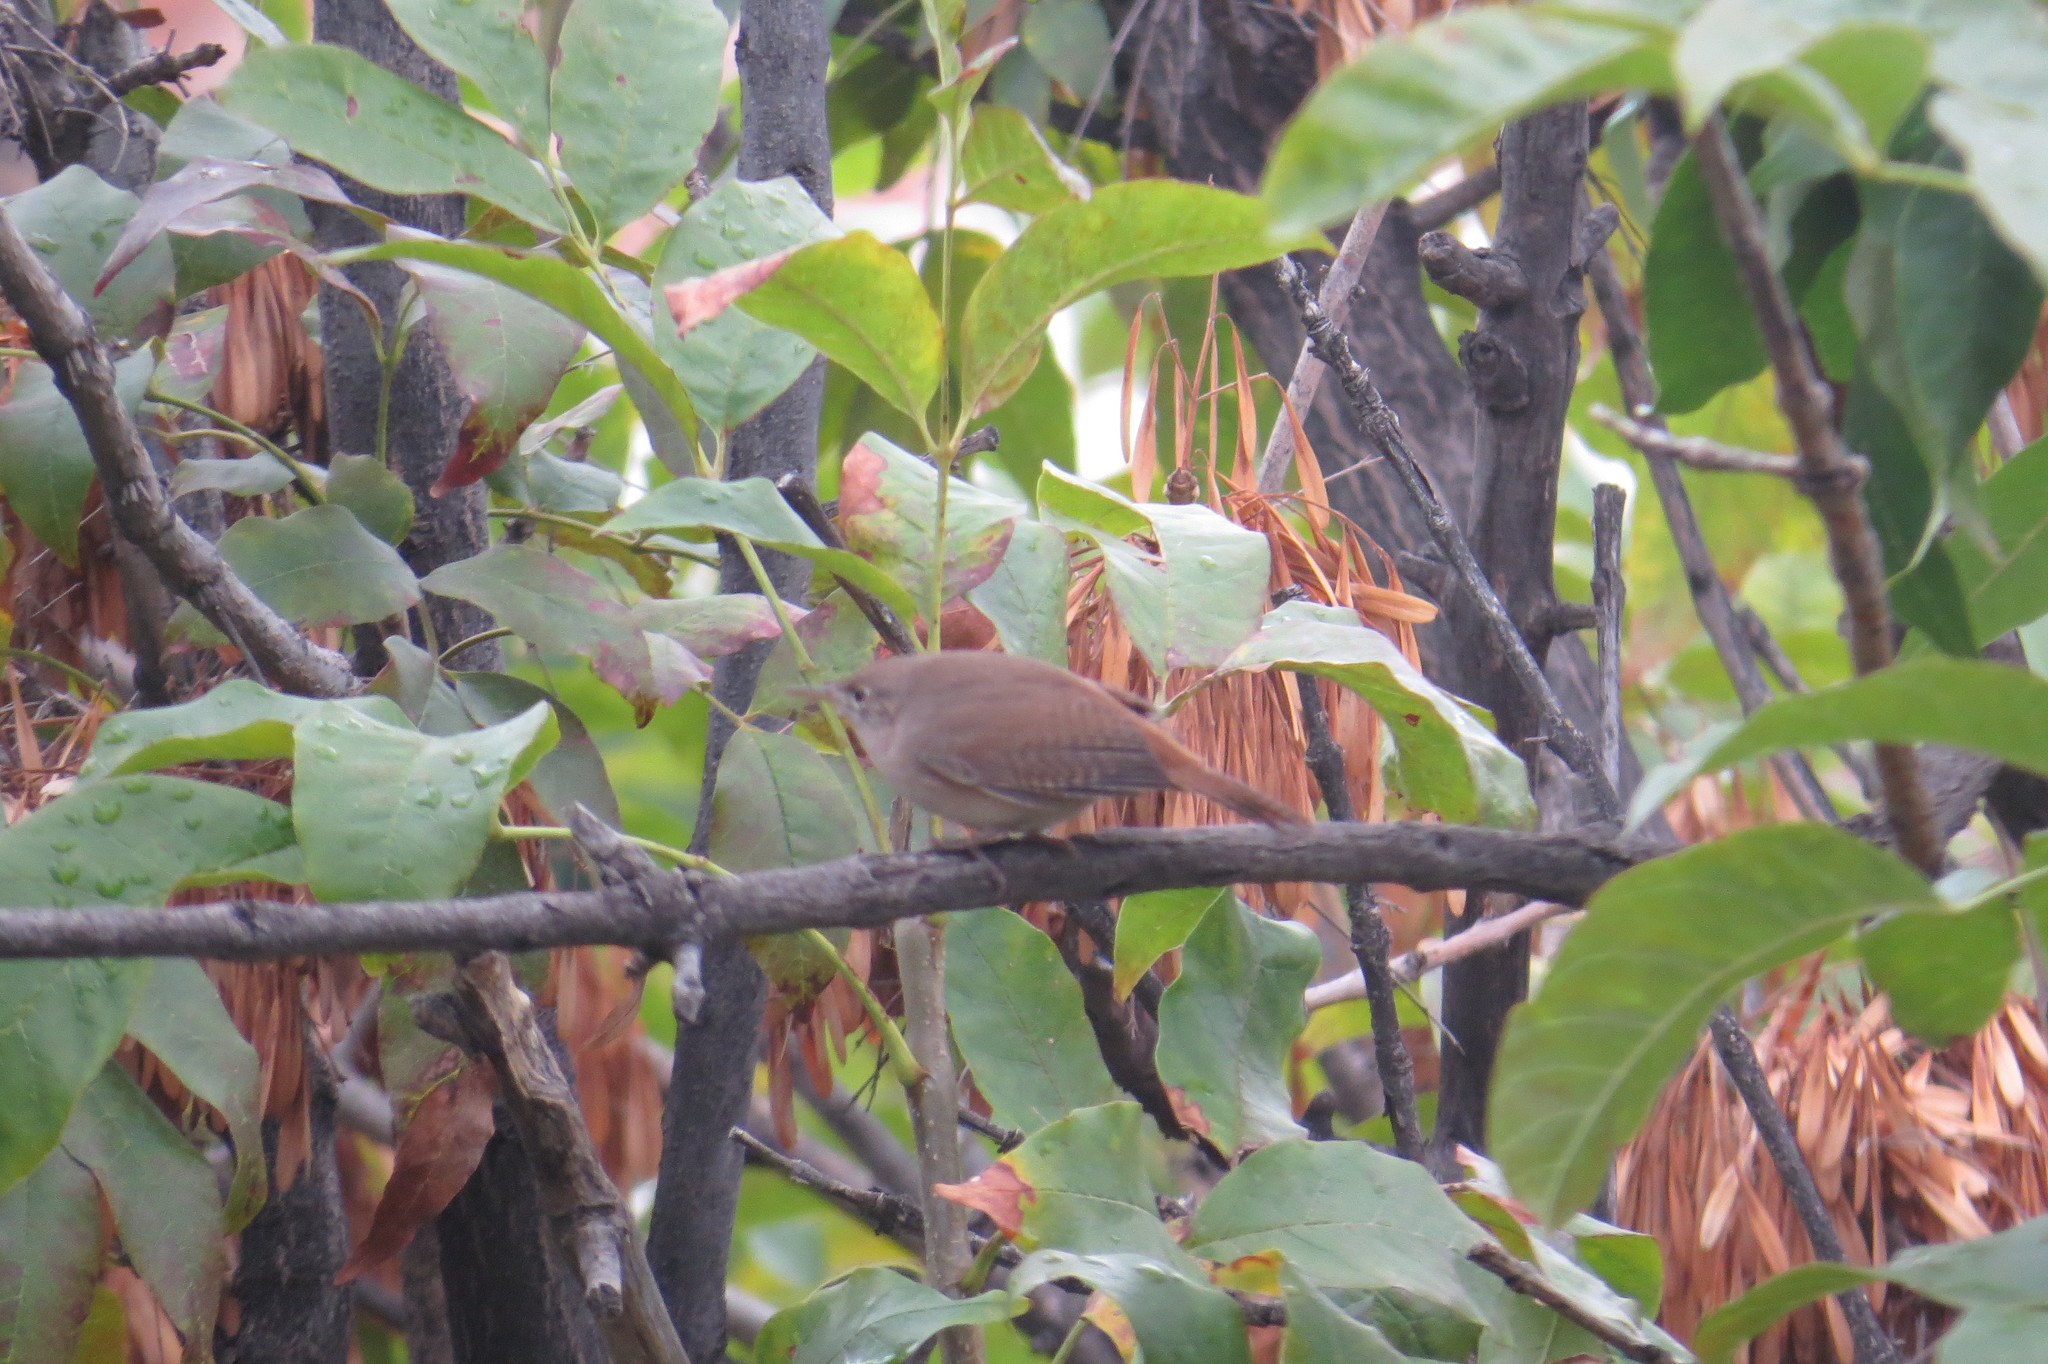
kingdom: Animalia
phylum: Chordata
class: Aves
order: Passeriformes
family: Troglodytidae
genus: Troglodytes
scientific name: Troglodytes aedon
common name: House wren
